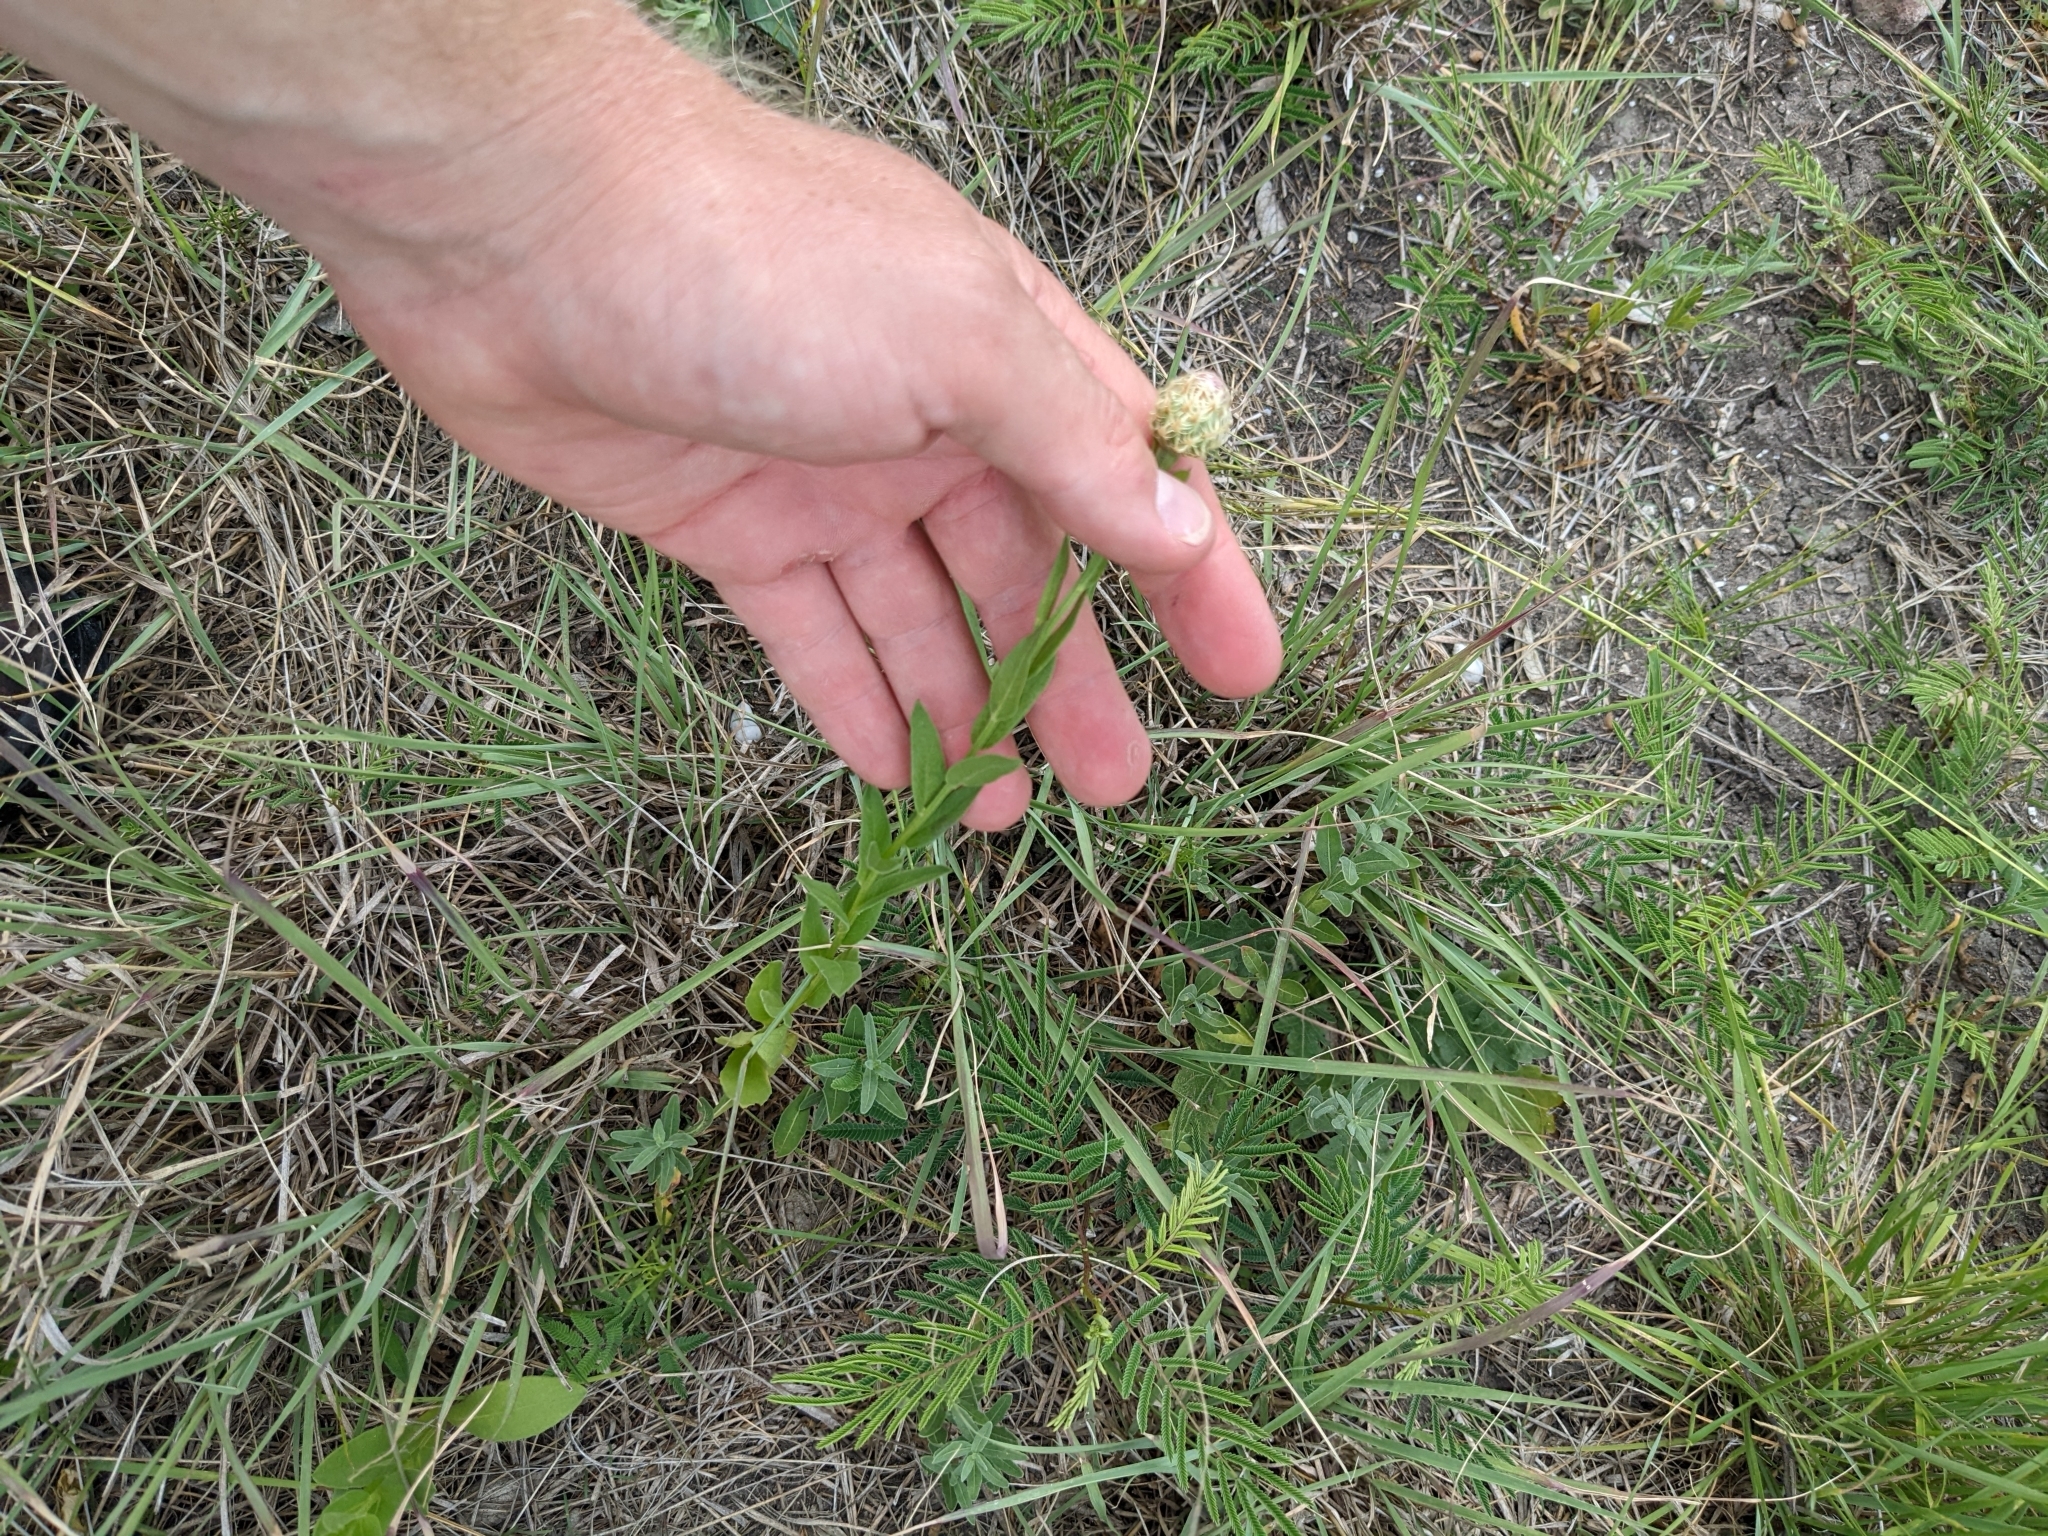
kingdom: Plantae
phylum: Tracheophyta
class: Magnoliopsida
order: Asterales
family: Asteraceae
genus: Plectocephalus
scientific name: Plectocephalus americanus
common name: American basket-flower
